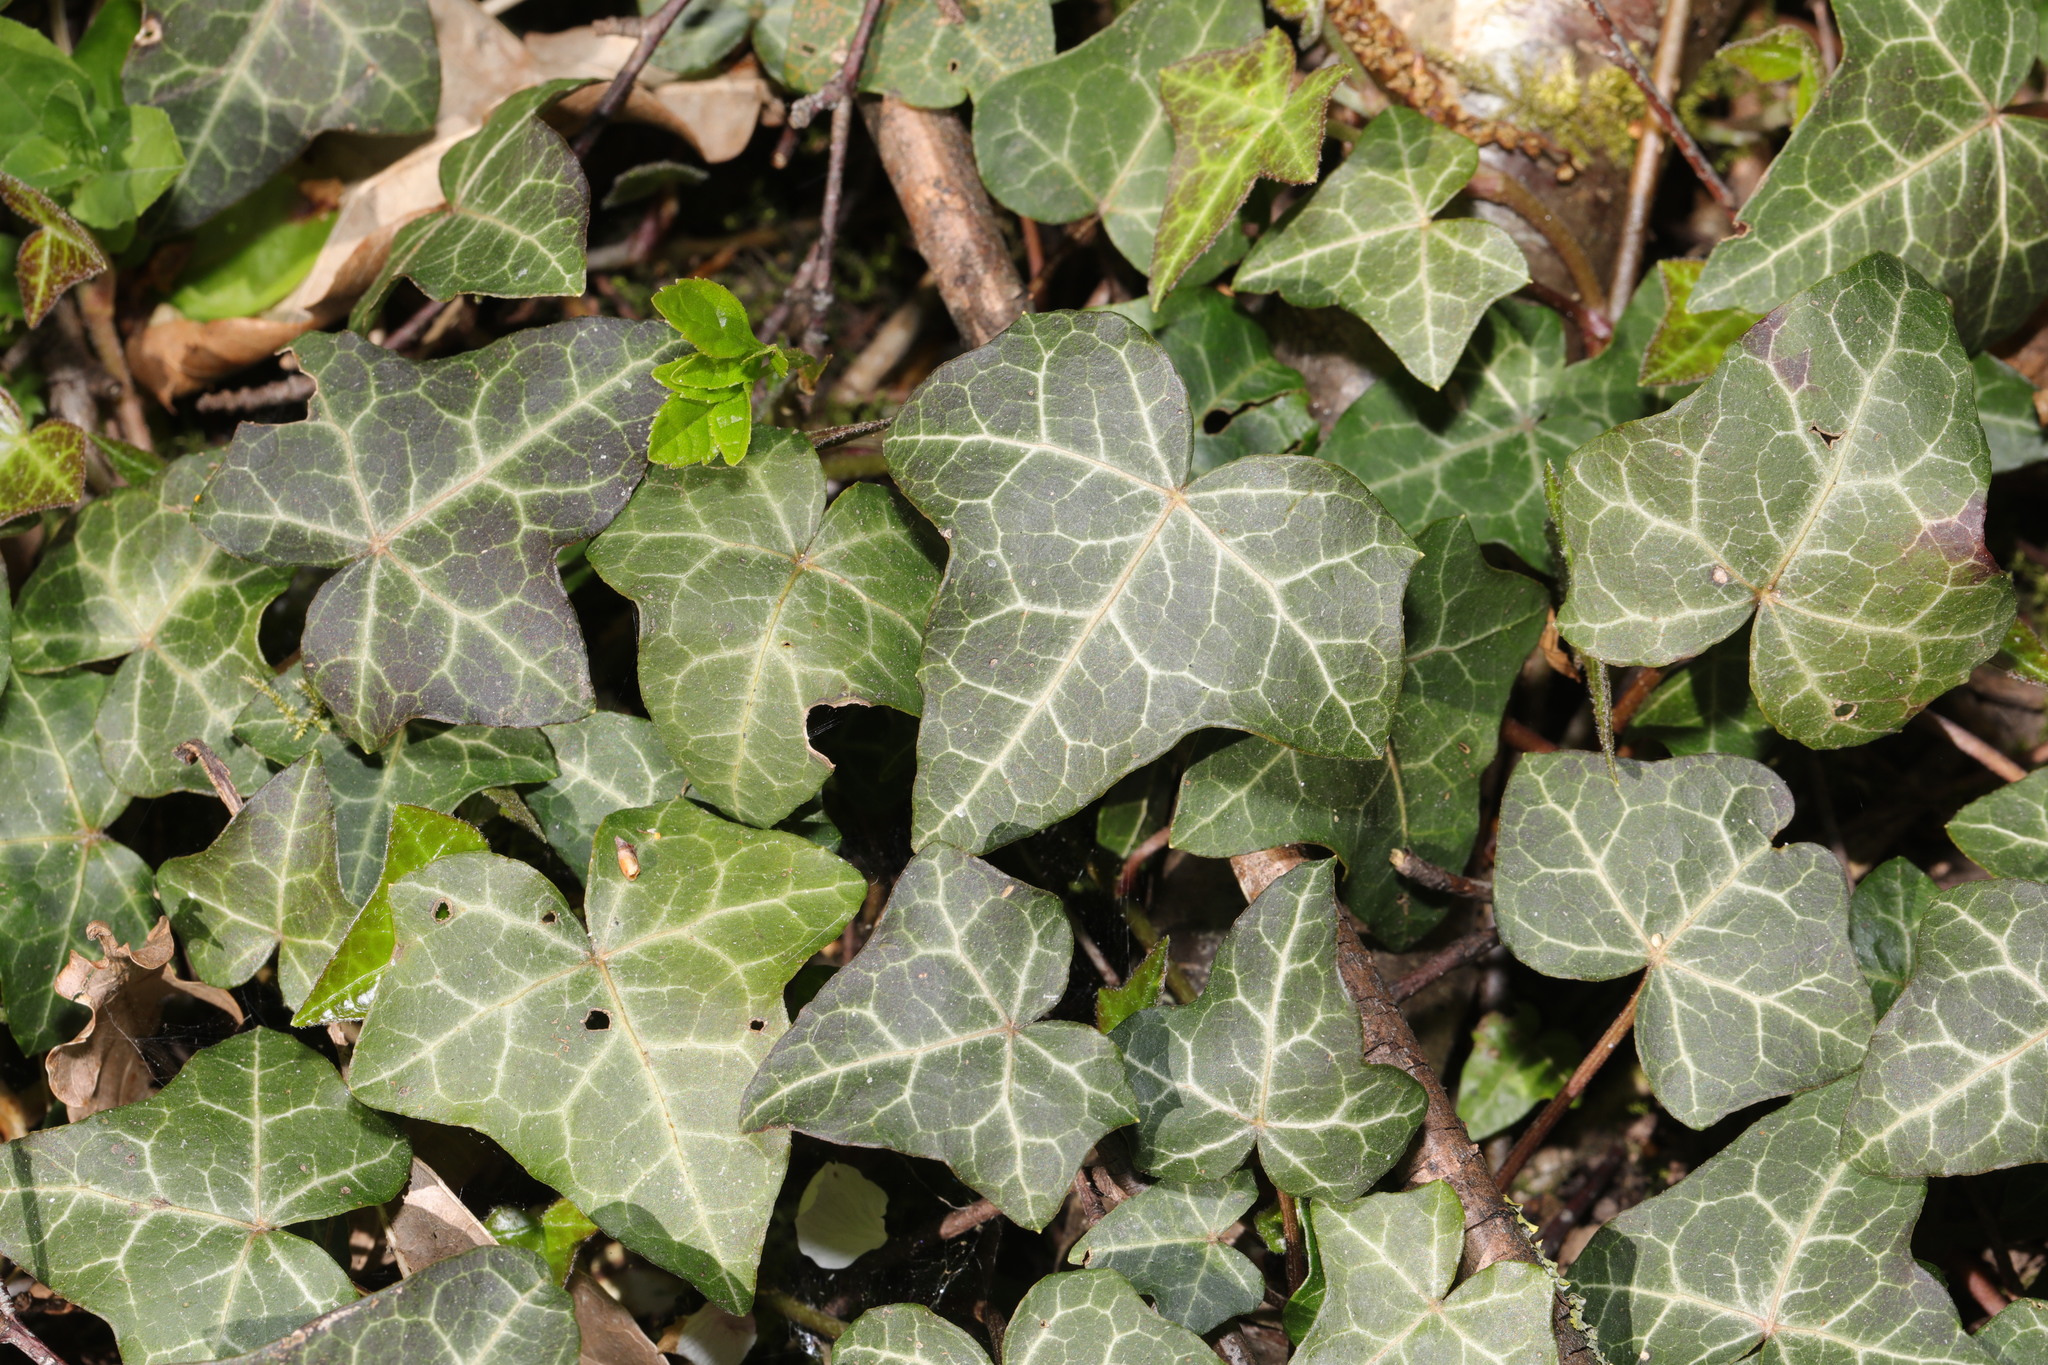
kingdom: Plantae
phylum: Tracheophyta
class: Magnoliopsida
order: Apiales
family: Araliaceae
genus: Hedera
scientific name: Hedera helix
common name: Ivy
